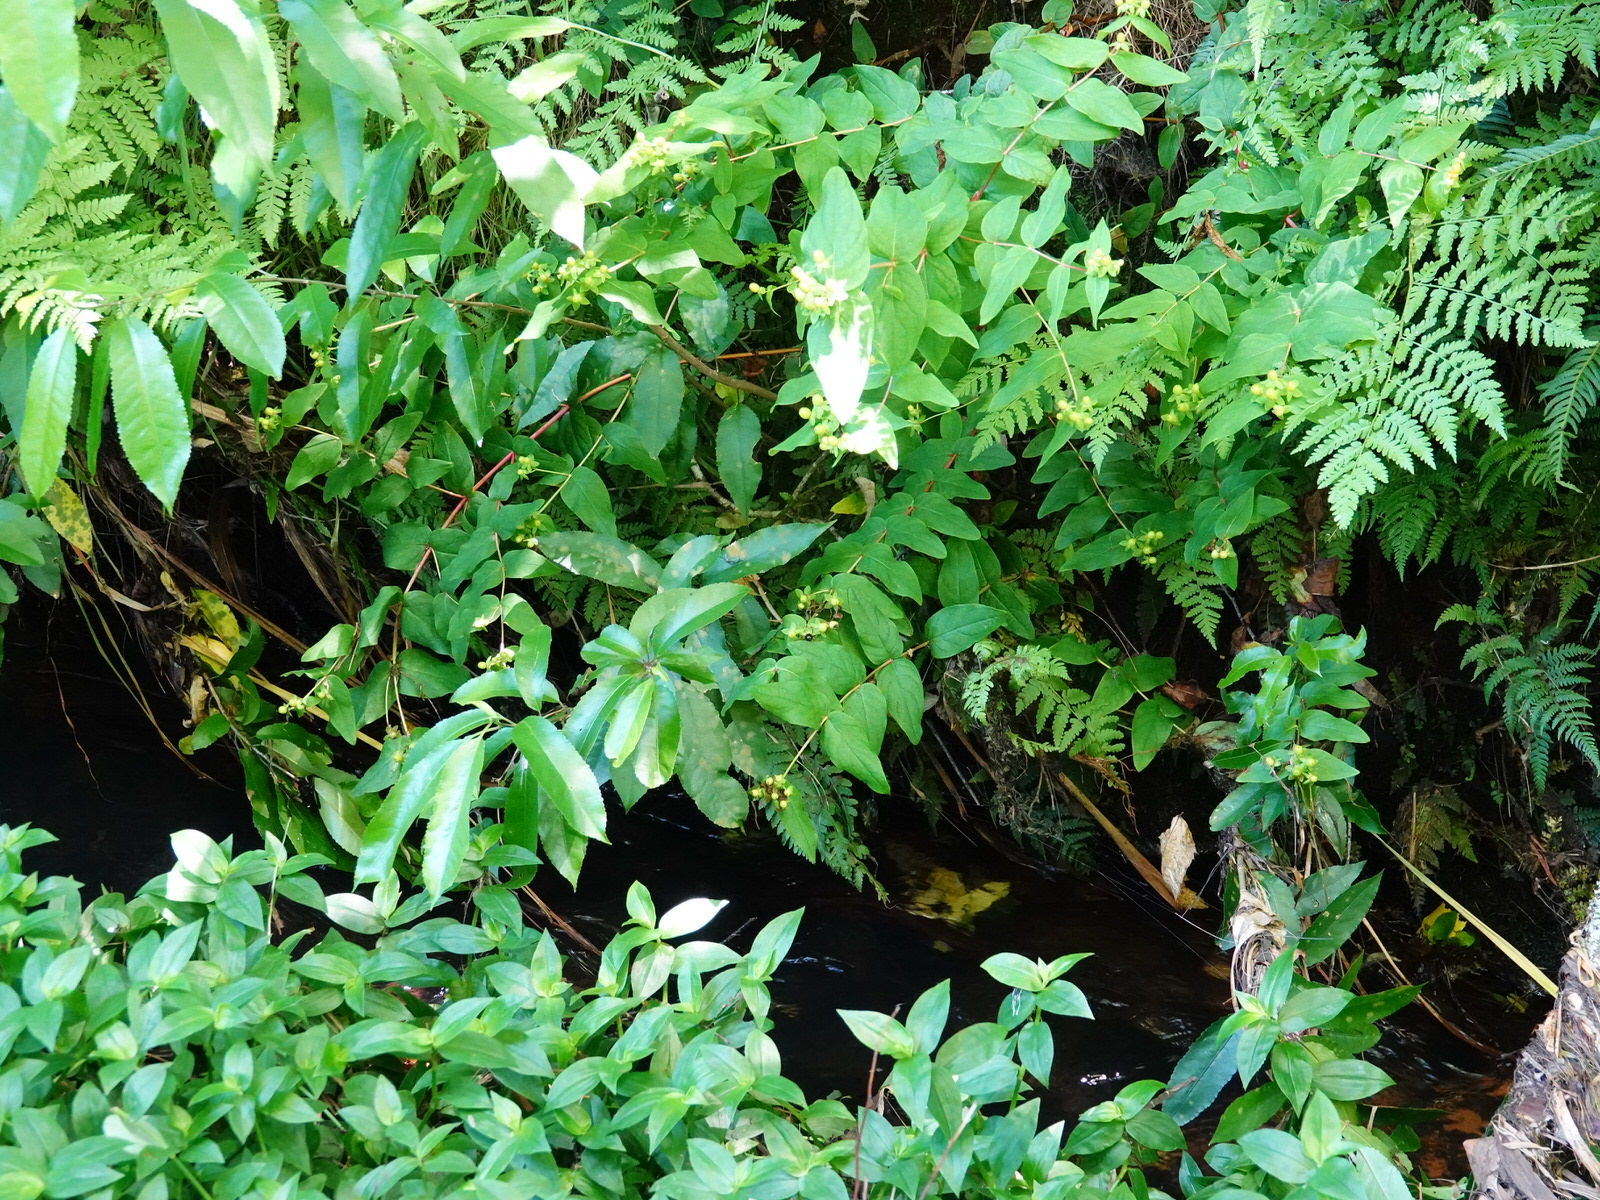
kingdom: Plantae
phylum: Tracheophyta
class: Magnoliopsida
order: Malpighiales
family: Hypericaceae
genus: Hypericum
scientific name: Hypericum androsaemum
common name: Sweet-amber
